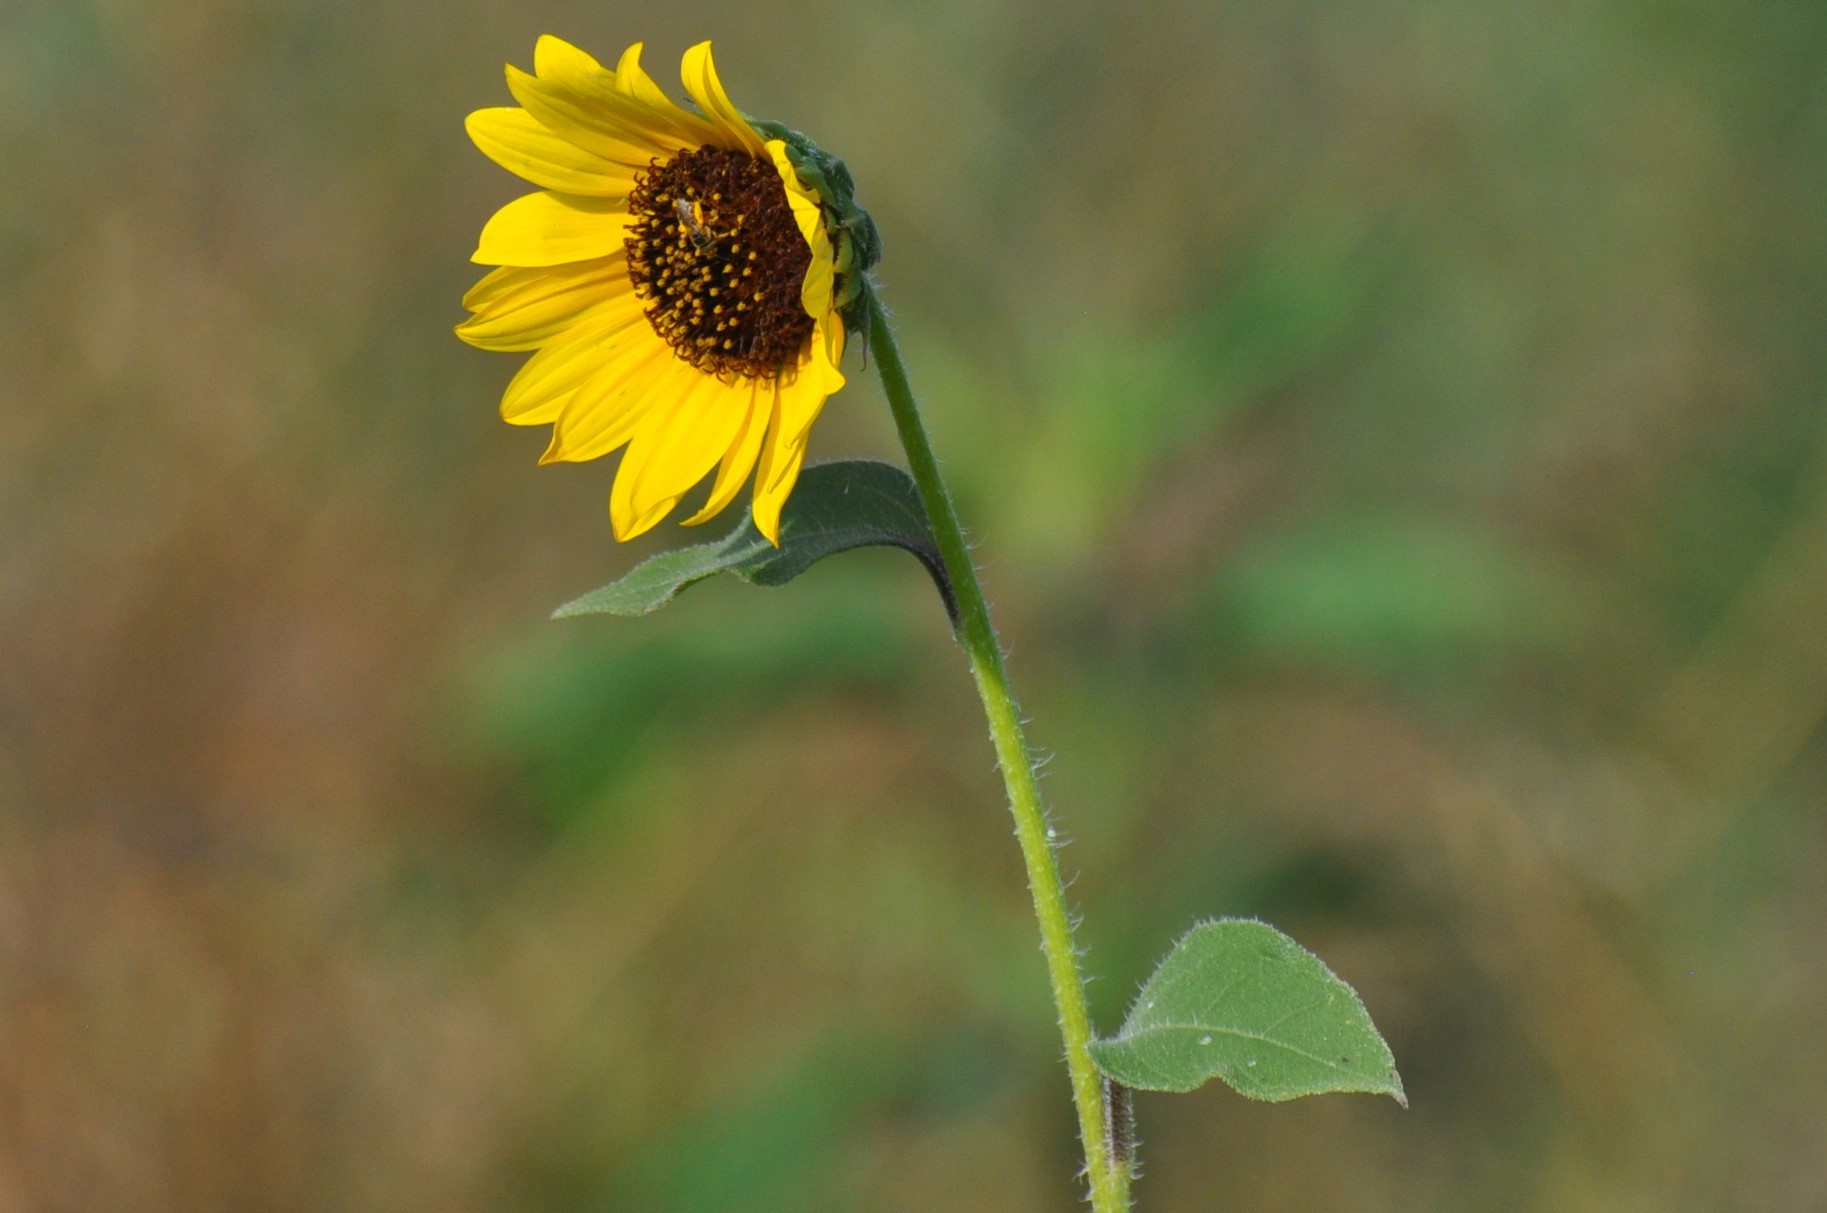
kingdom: Plantae
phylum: Tracheophyta
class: Magnoliopsida
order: Asterales
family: Asteraceae
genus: Helianthus
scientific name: Helianthus annuus
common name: Sunflower
